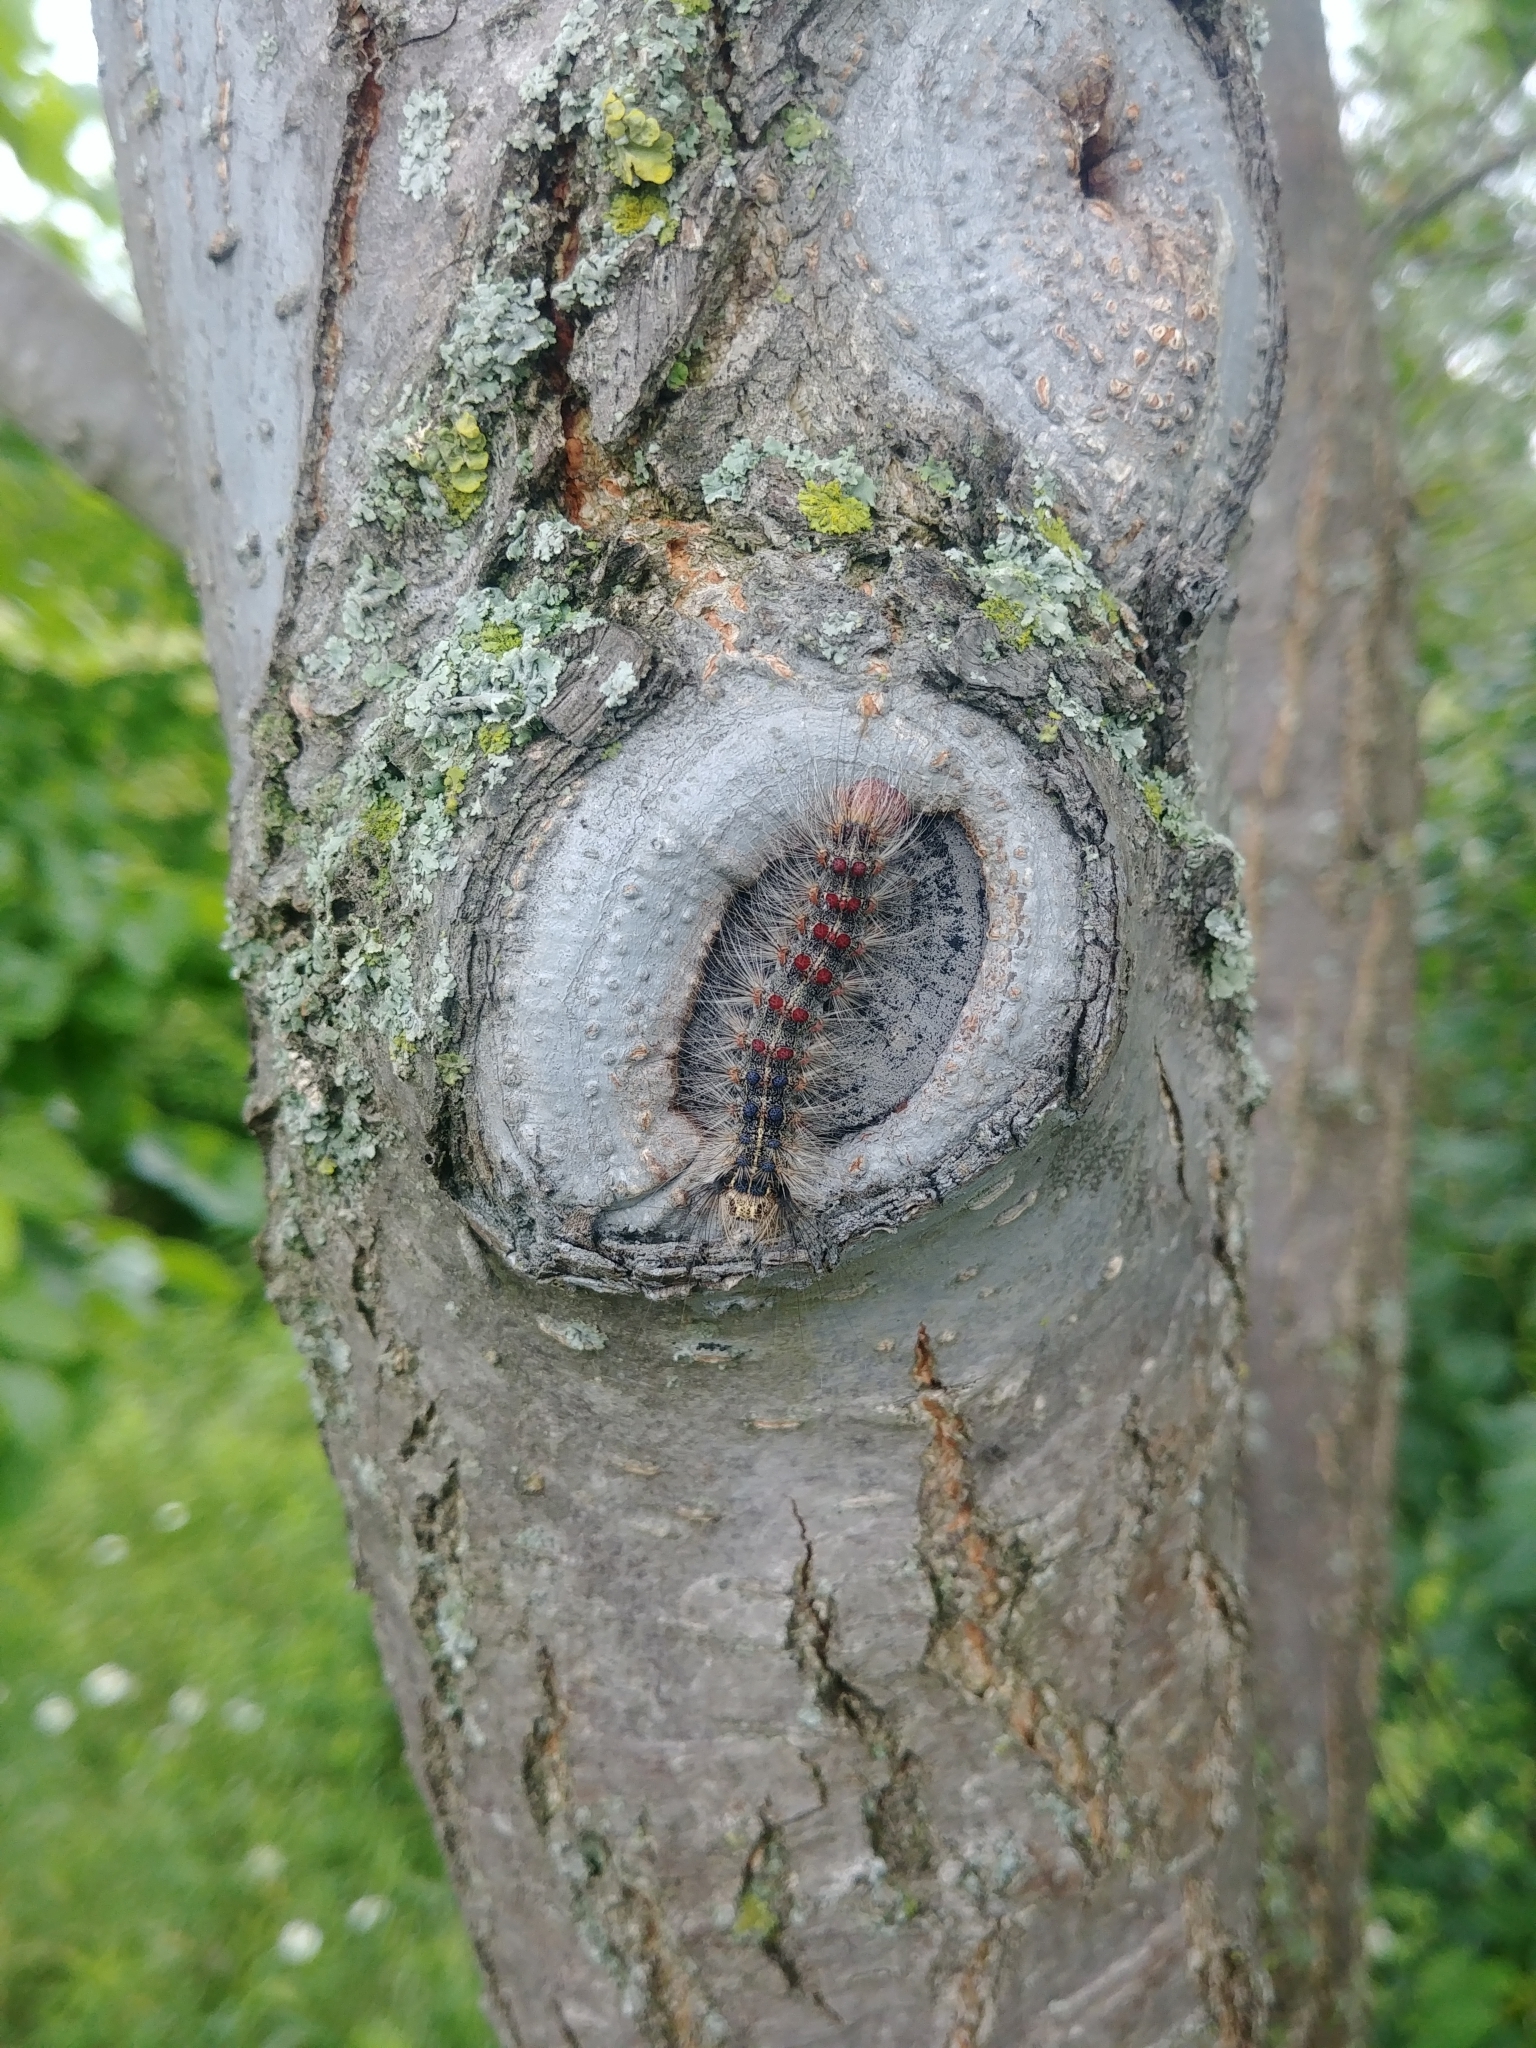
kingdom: Animalia
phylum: Arthropoda
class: Insecta
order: Lepidoptera
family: Erebidae
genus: Lymantria
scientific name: Lymantria dispar
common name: Gypsy moth
